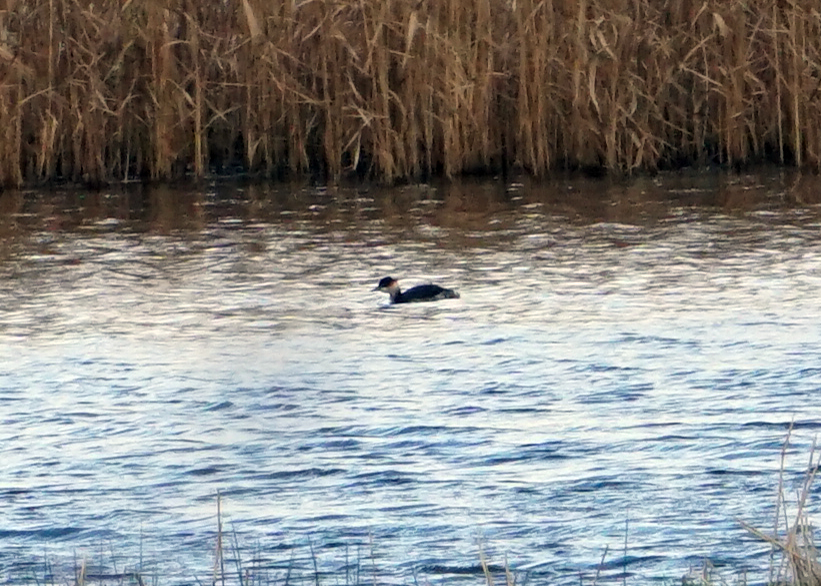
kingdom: Animalia
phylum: Chordata
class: Aves
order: Podicipediformes
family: Podicipedidae
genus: Podiceps
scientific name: Podiceps nigricollis
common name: Black-necked grebe
